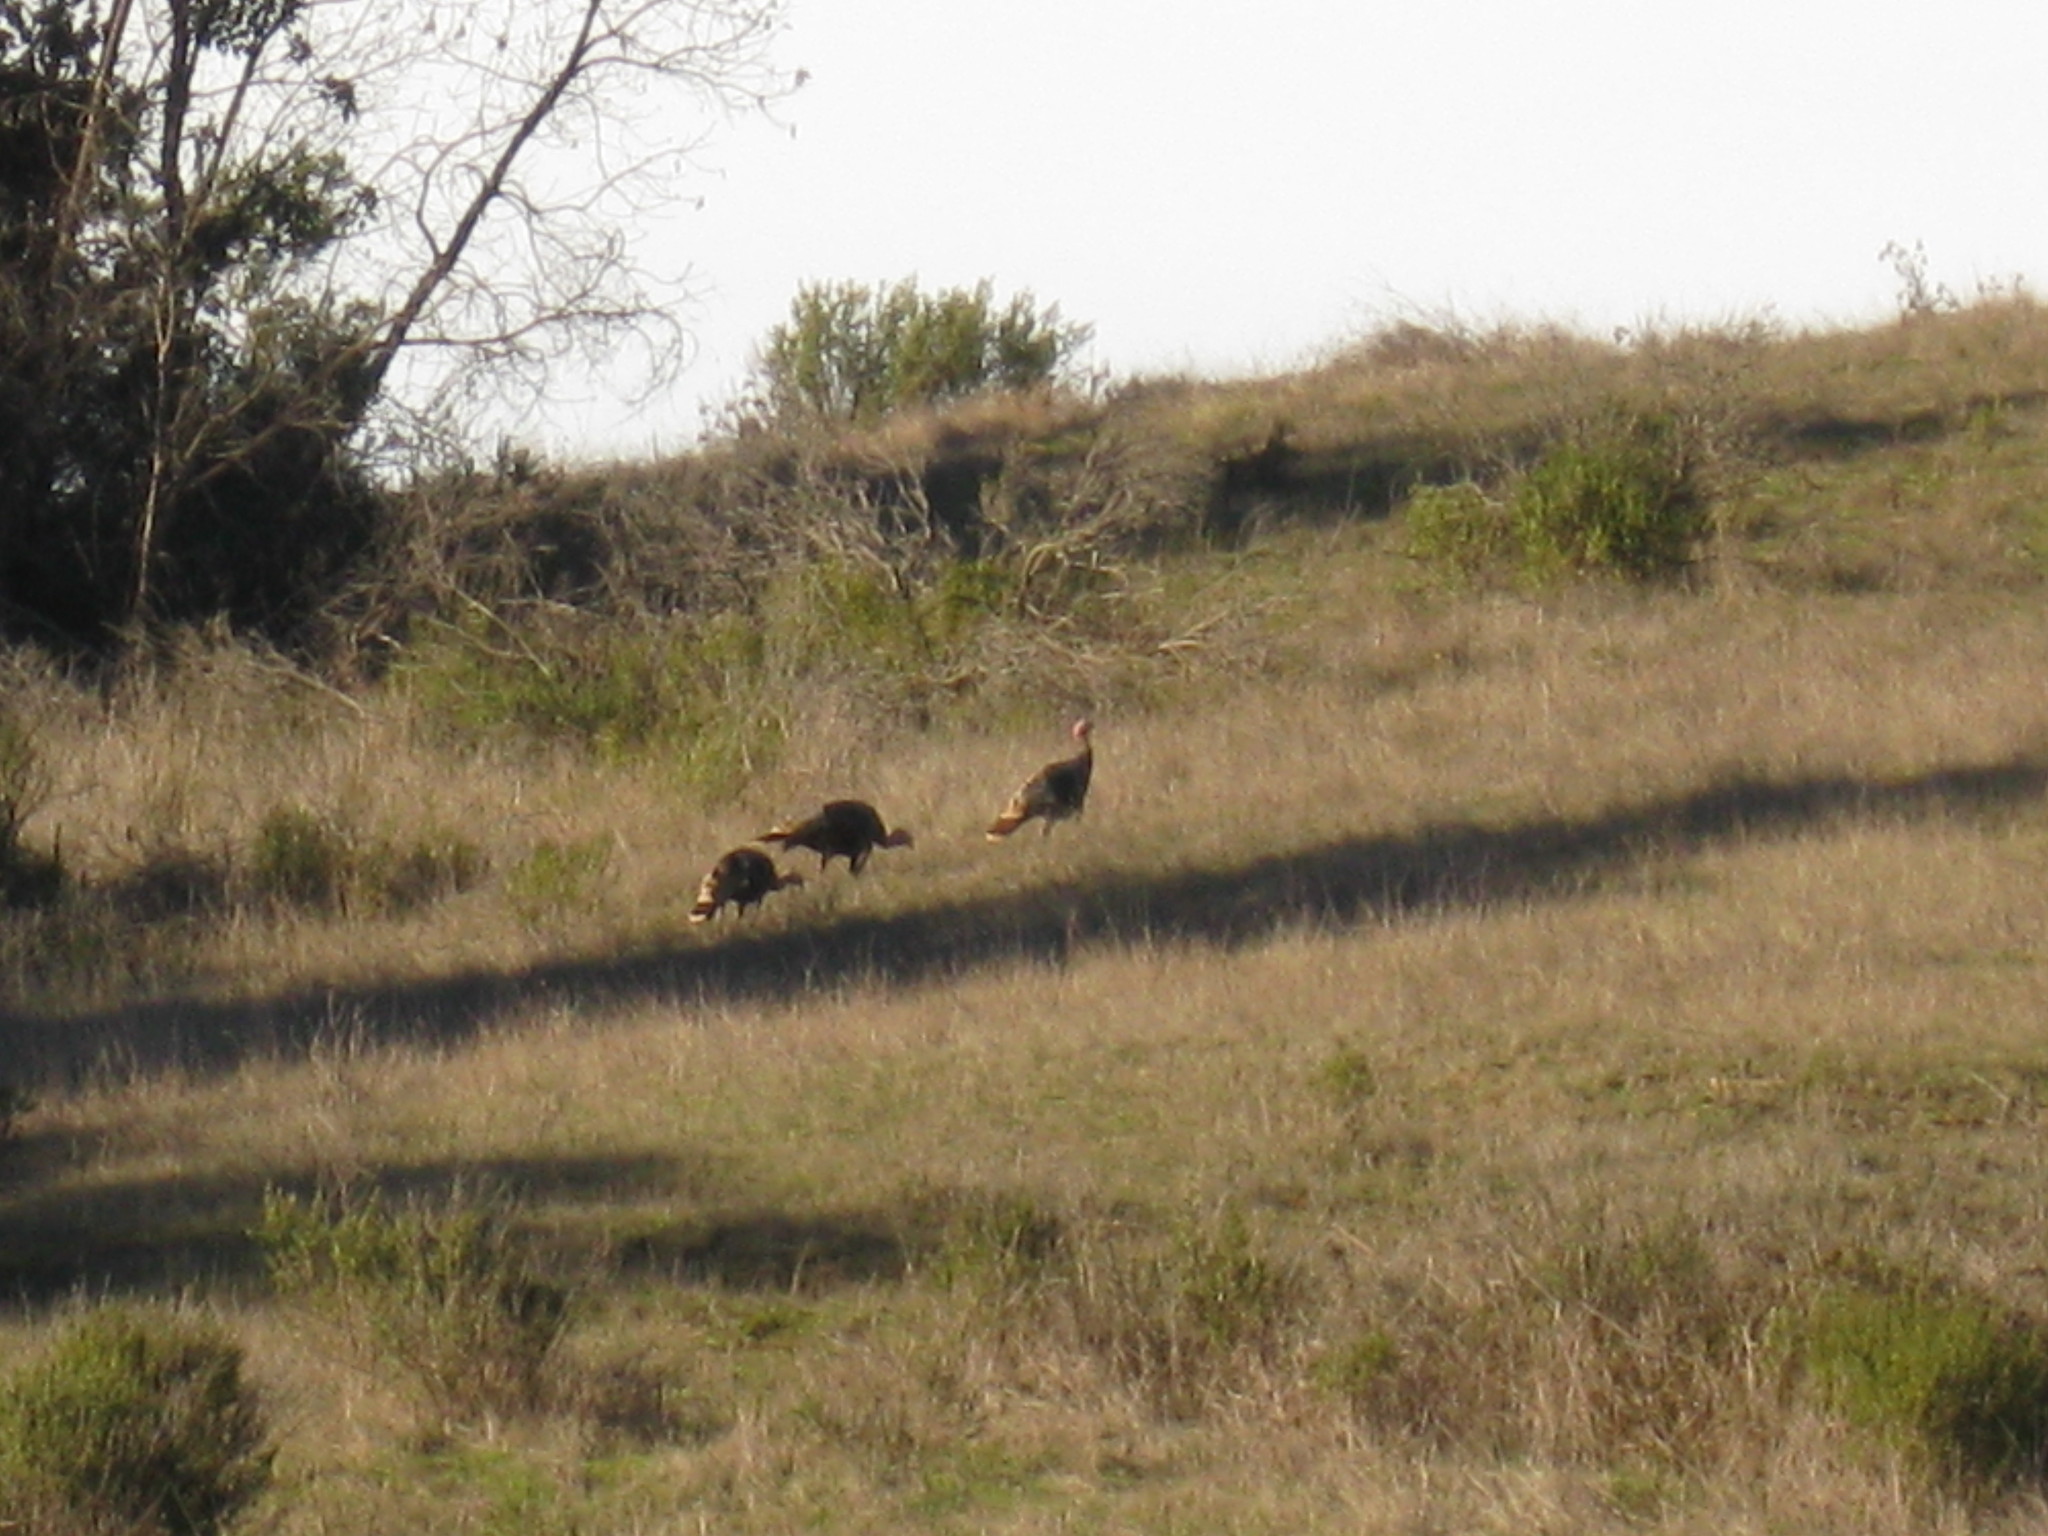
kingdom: Animalia
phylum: Chordata
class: Aves
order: Galliformes
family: Phasianidae
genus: Meleagris
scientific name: Meleagris gallopavo
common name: Wild turkey
